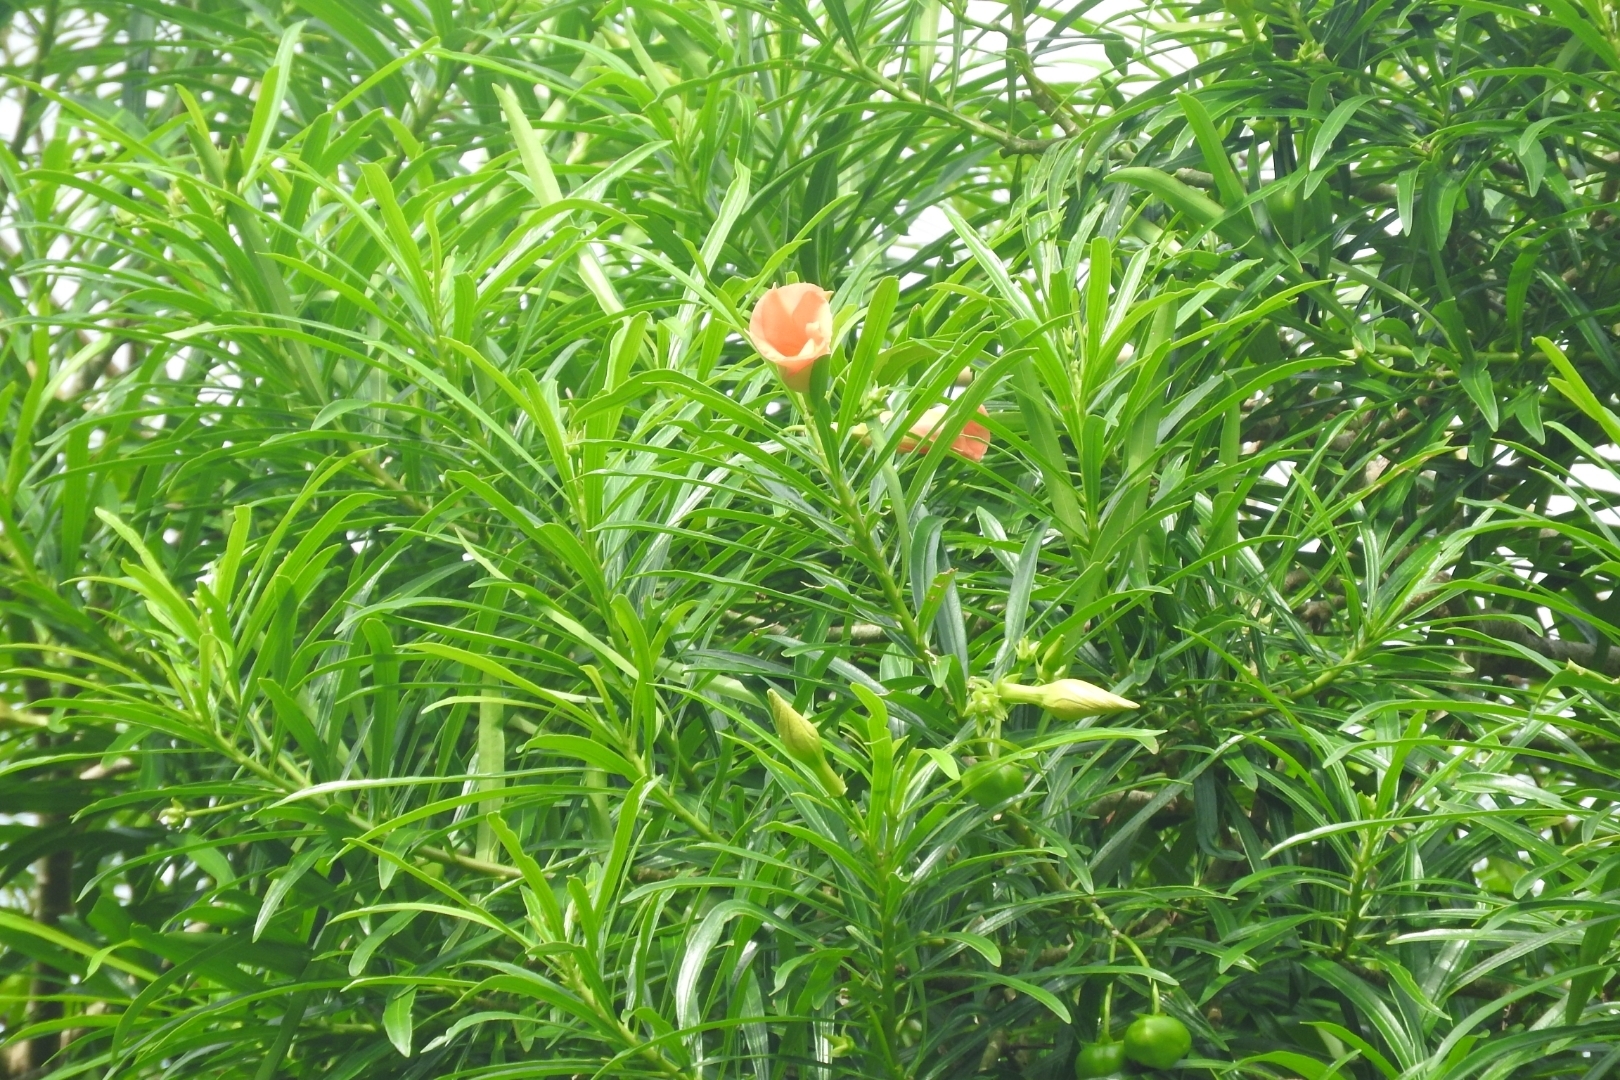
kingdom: Plantae
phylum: Tracheophyta
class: Magnoliopsida
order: Gentianales
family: Apocynaceae
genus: Cascabela
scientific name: Cascabela thevetia
